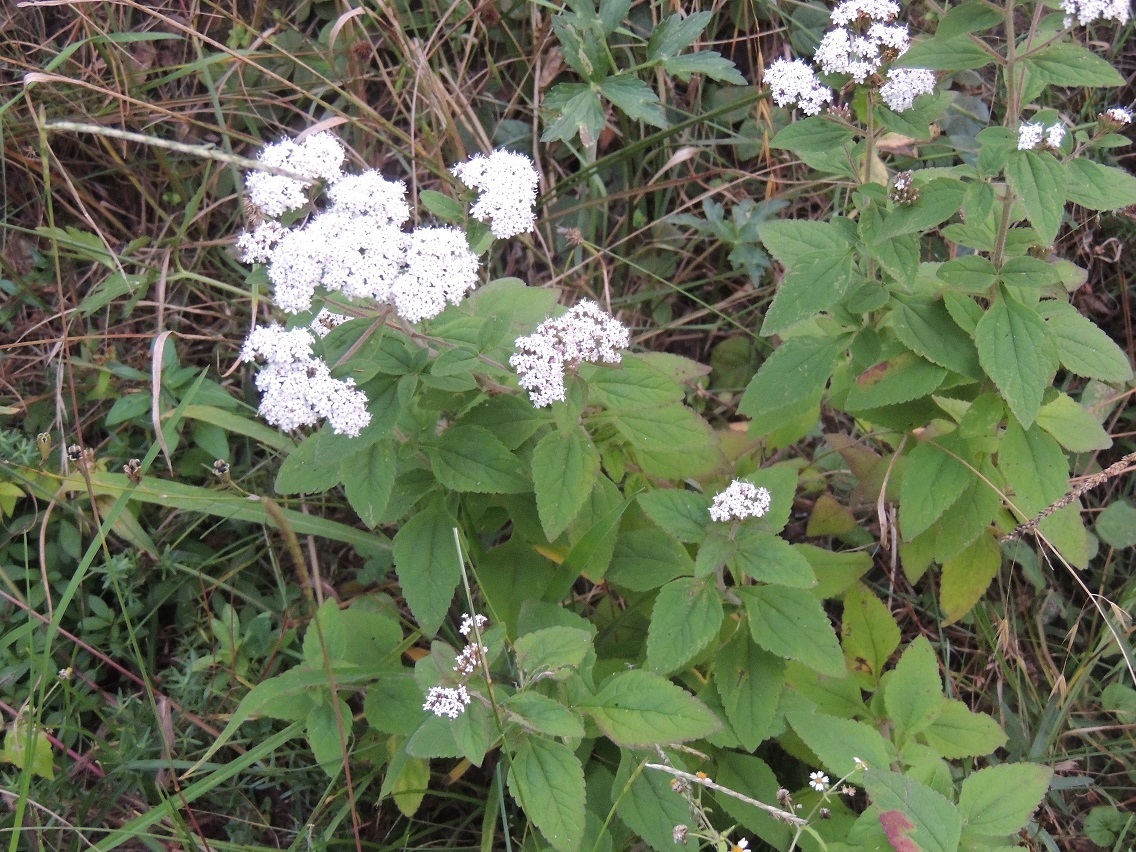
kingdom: Plantae
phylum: Tracheophyta
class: Magnoliopsida
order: Asterales
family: Asteraceae
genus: Stevia
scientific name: Stevia ovata
